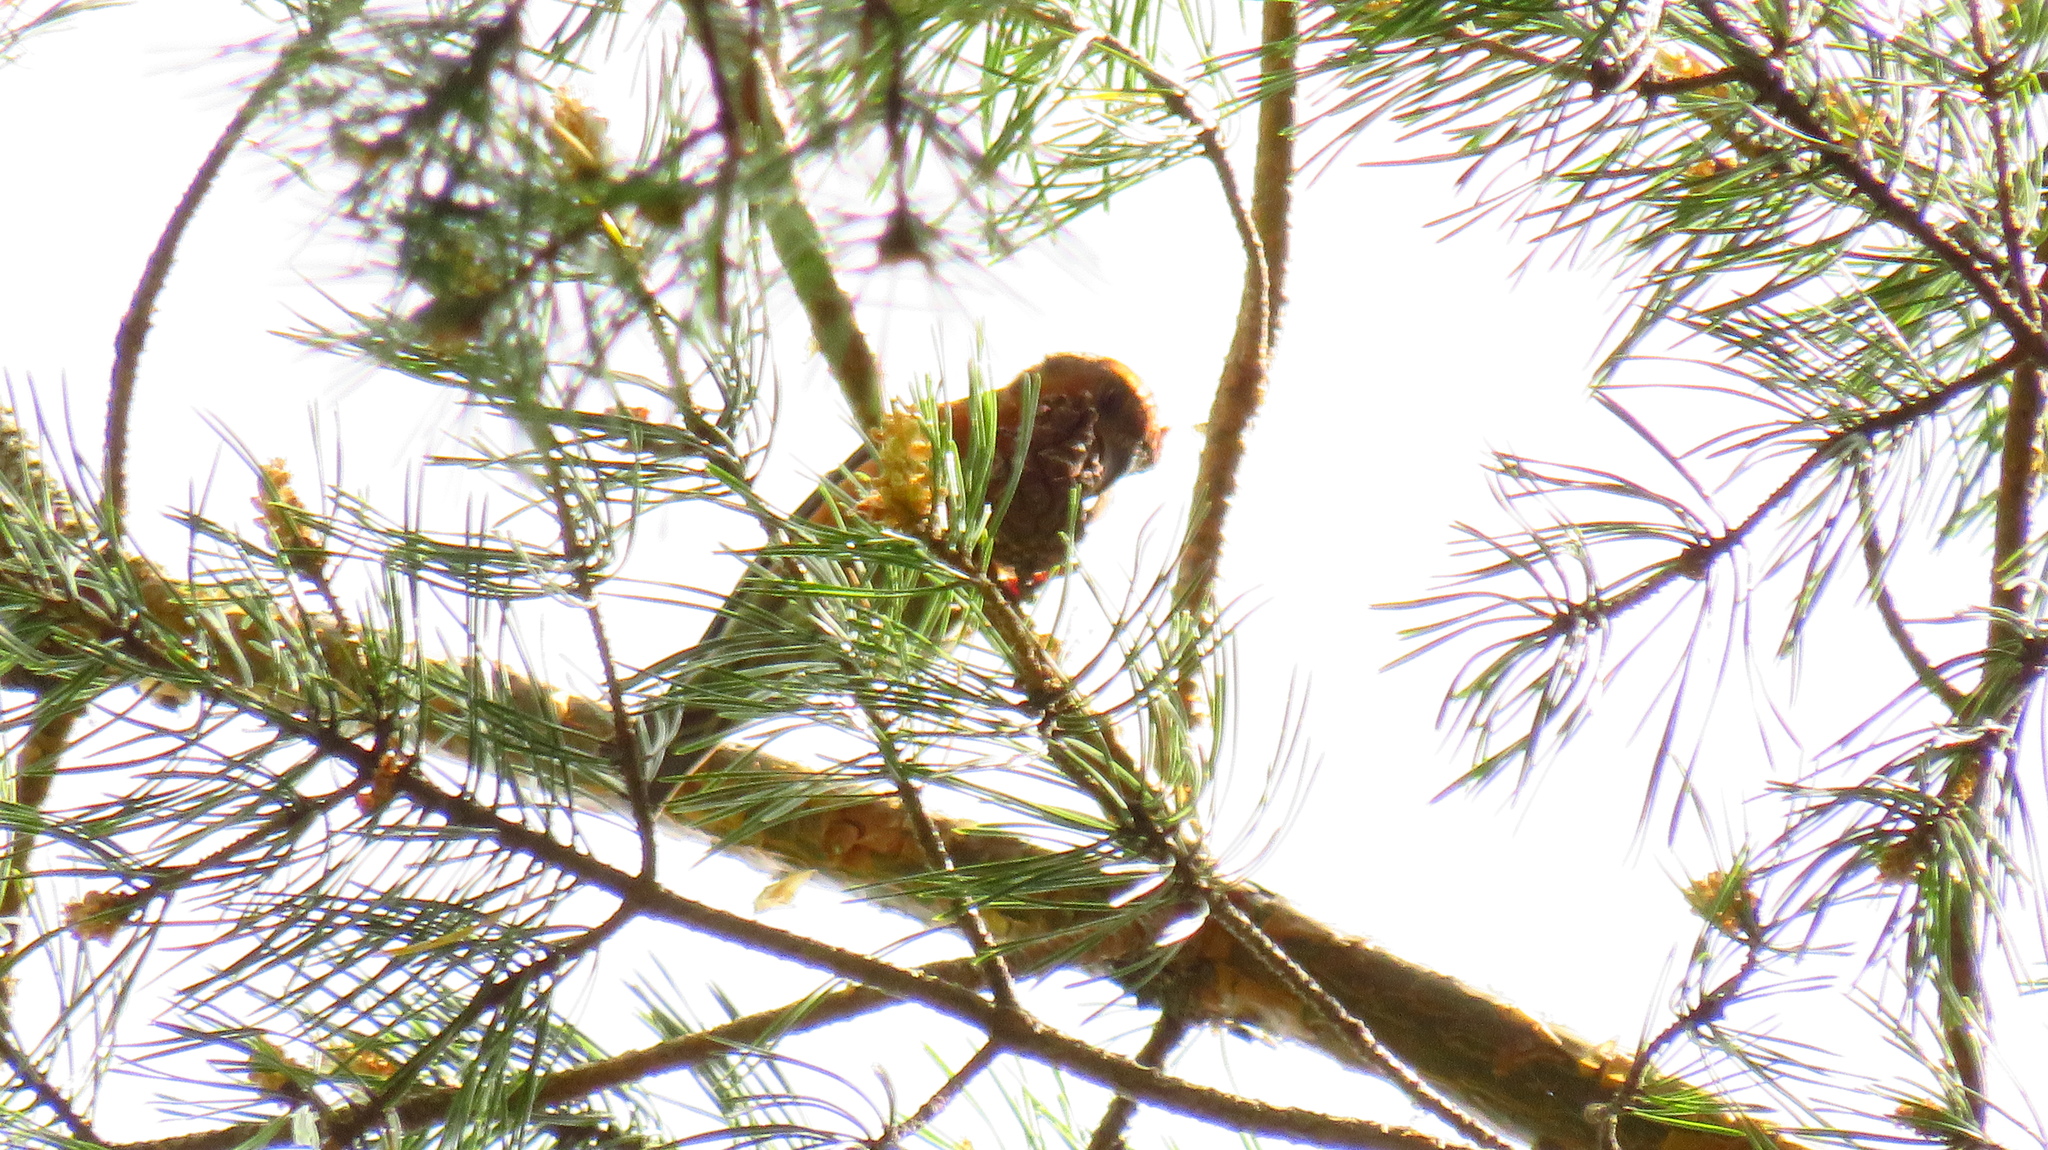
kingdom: Animalia
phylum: Chordata
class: Aves
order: Passeriformes
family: Fringillidae
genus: Loxia
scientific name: Loxia curvirostra
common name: Red crossbill
